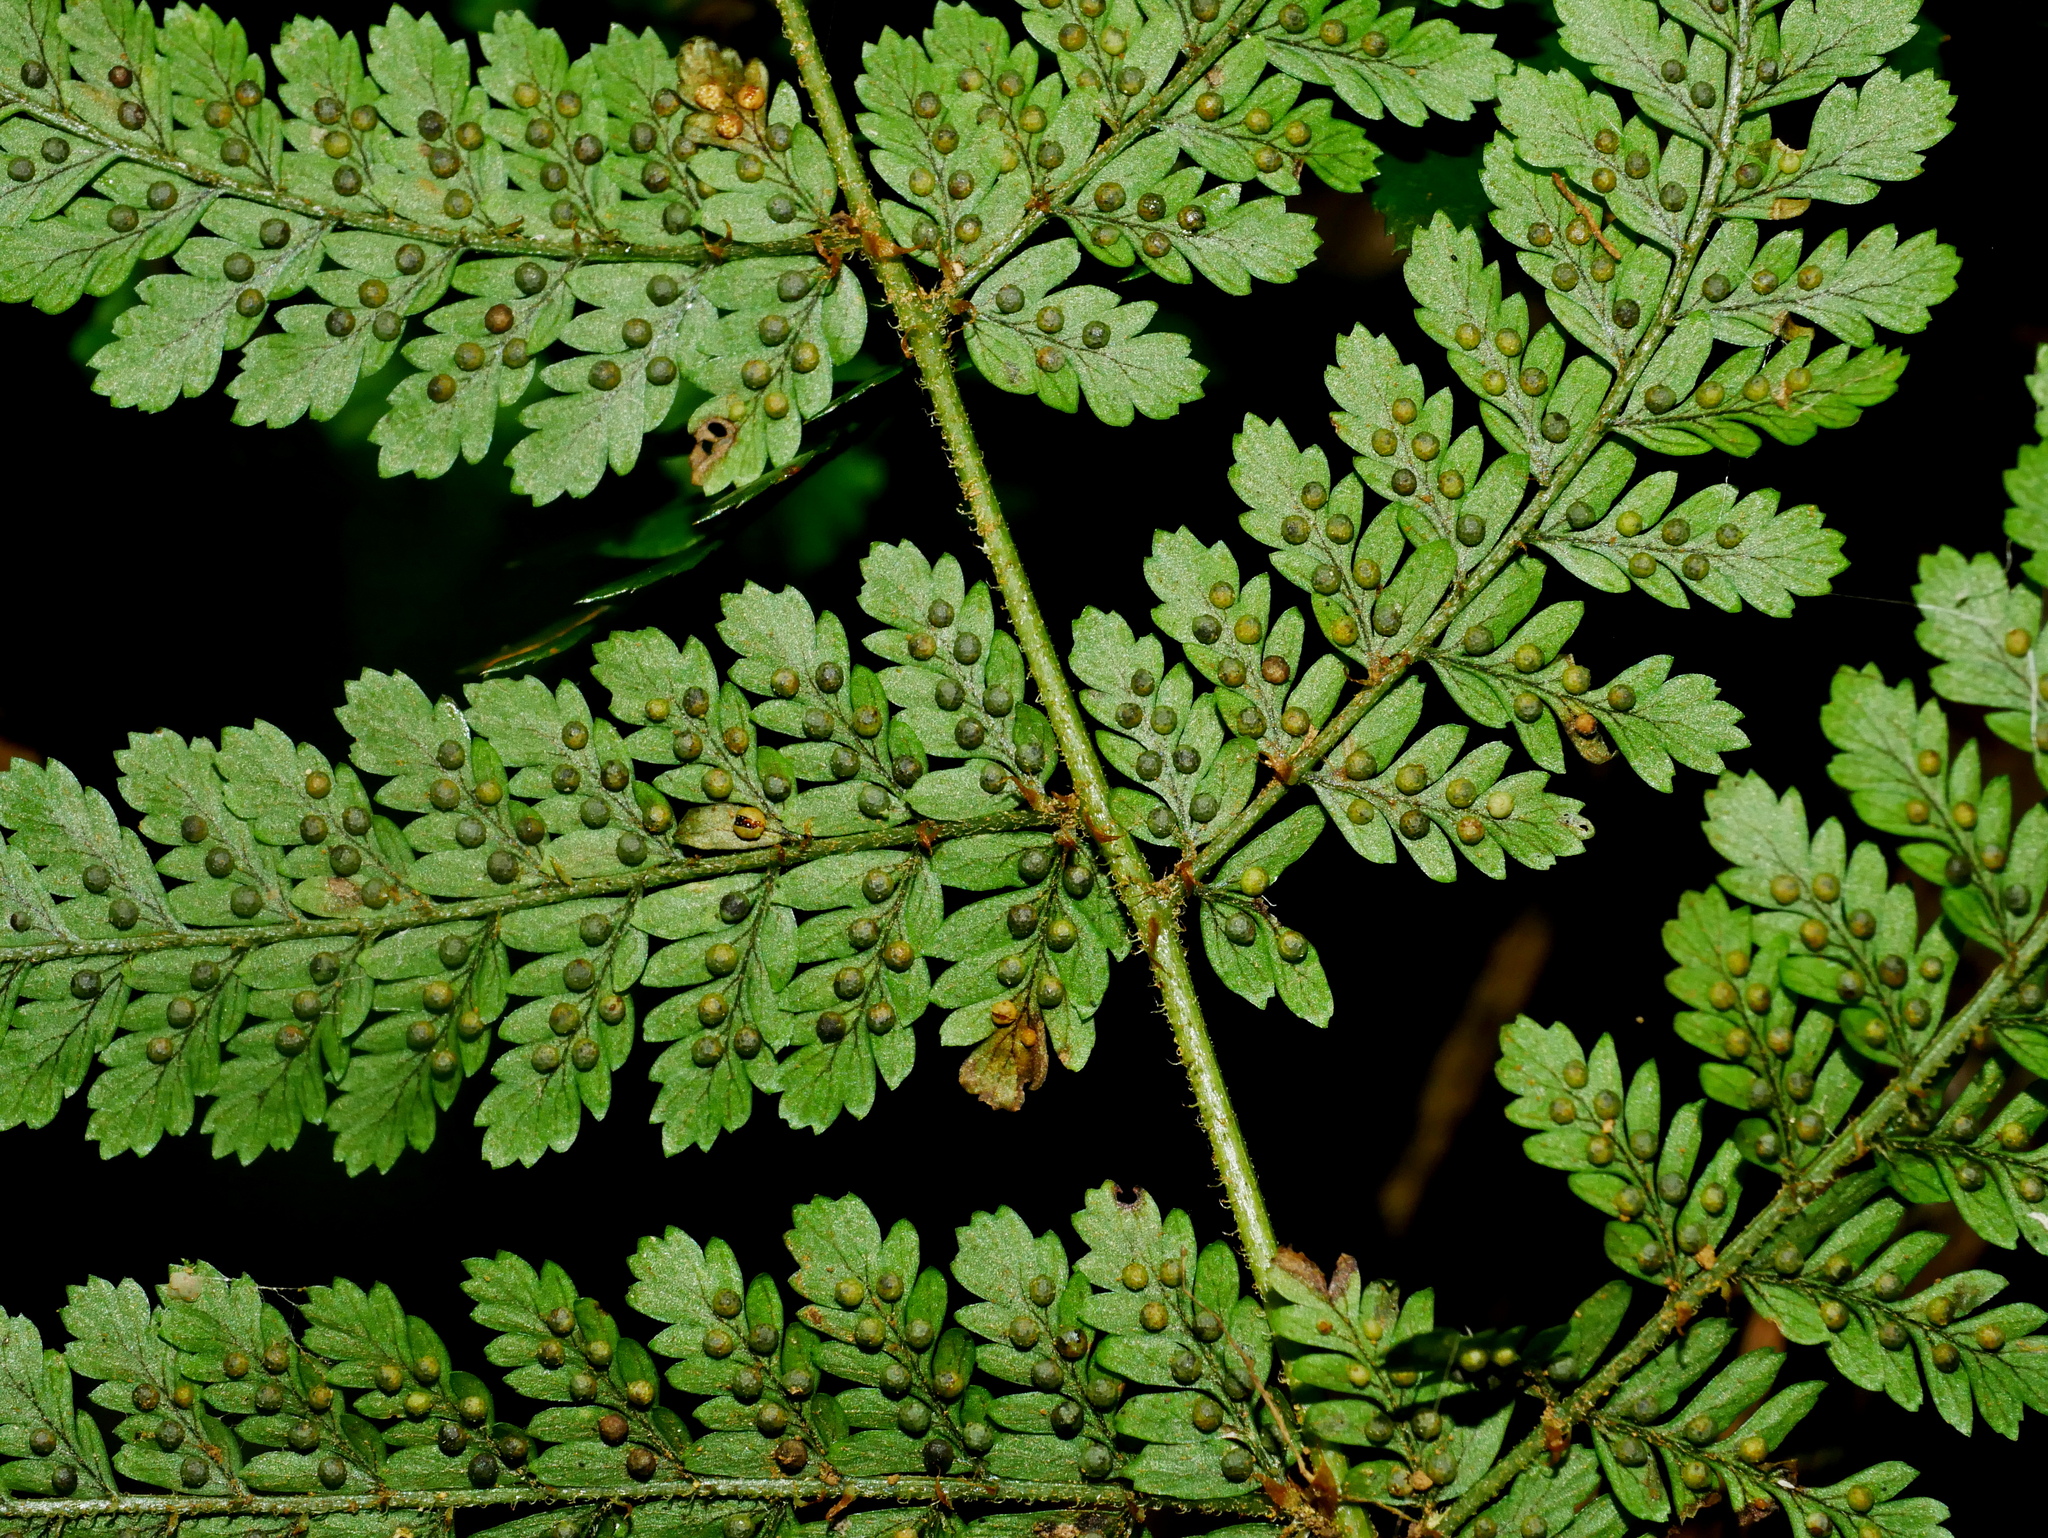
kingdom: Plantae
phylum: Tracheophyta
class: Polypodiopsida
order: Polypodiales
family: Dryopteridaceae
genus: Dryopteris
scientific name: Dryopteris pseudocaenopteris
